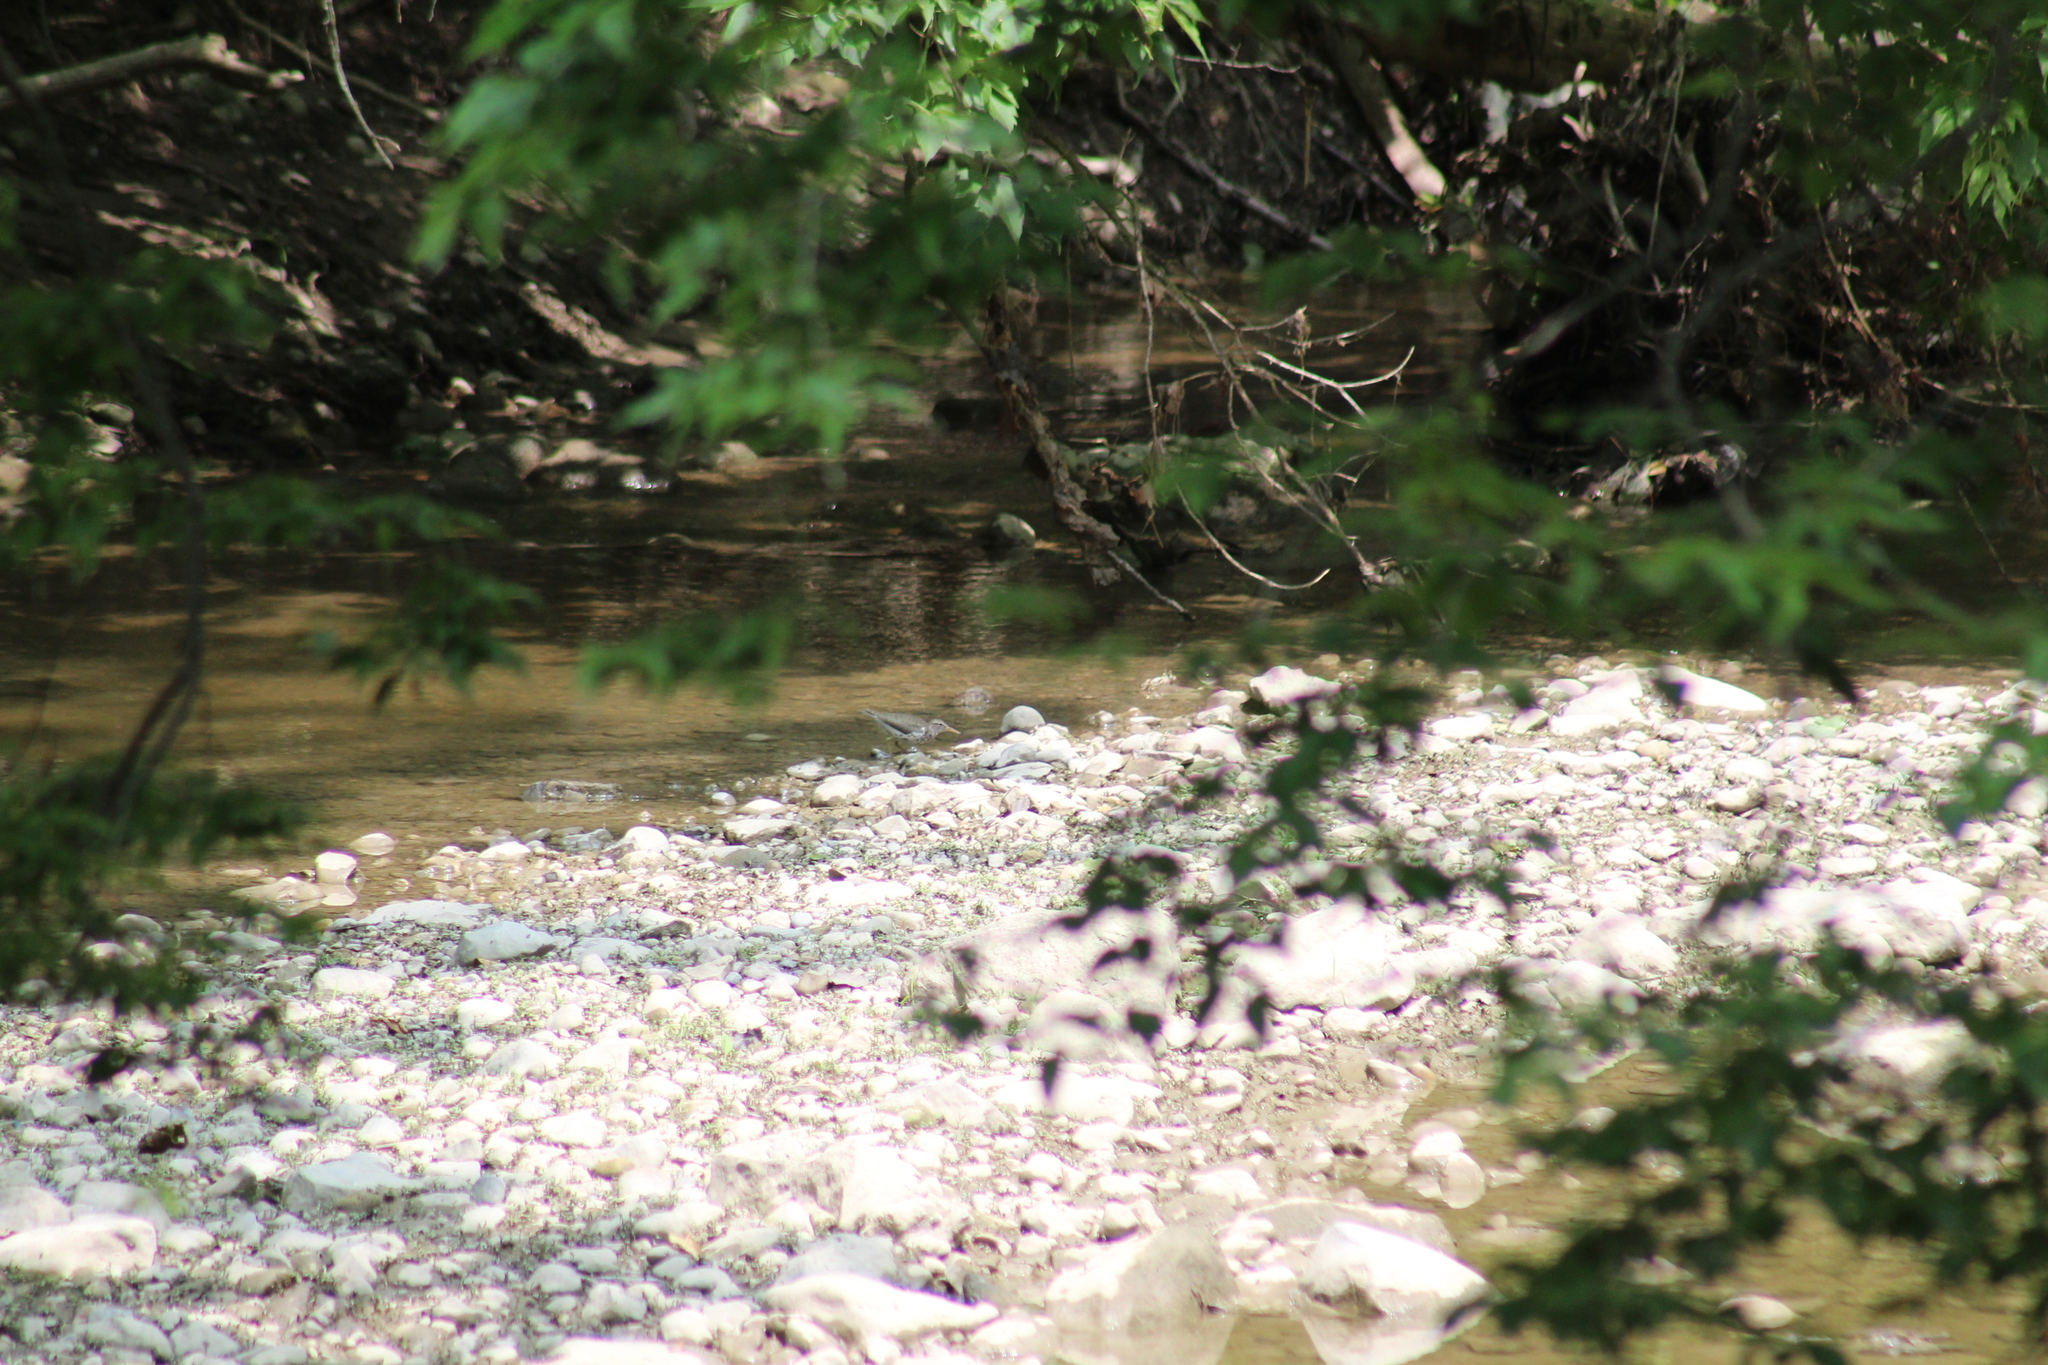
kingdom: Animalia
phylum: Chordata
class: Aves
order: Charadriiformes
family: Scolopacidae
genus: Actitis
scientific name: Actitis macularius
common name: Spotted sandpiper
